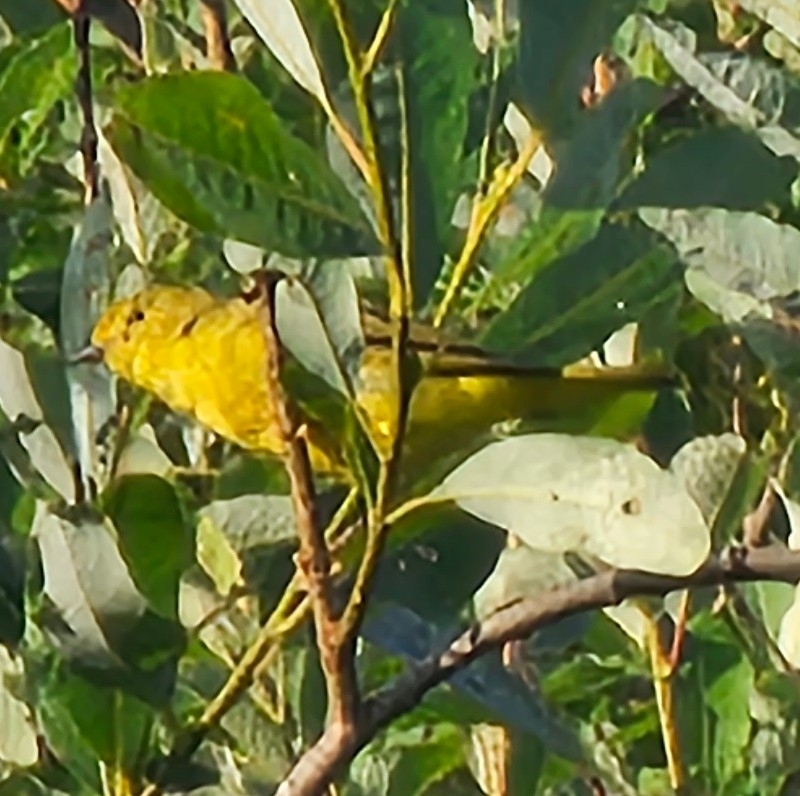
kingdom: Animalia
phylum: Chordata
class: Aves
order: Passeriformes
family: Parulidae
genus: Setophaga
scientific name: Setophaga petechia
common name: Yellow warbler
